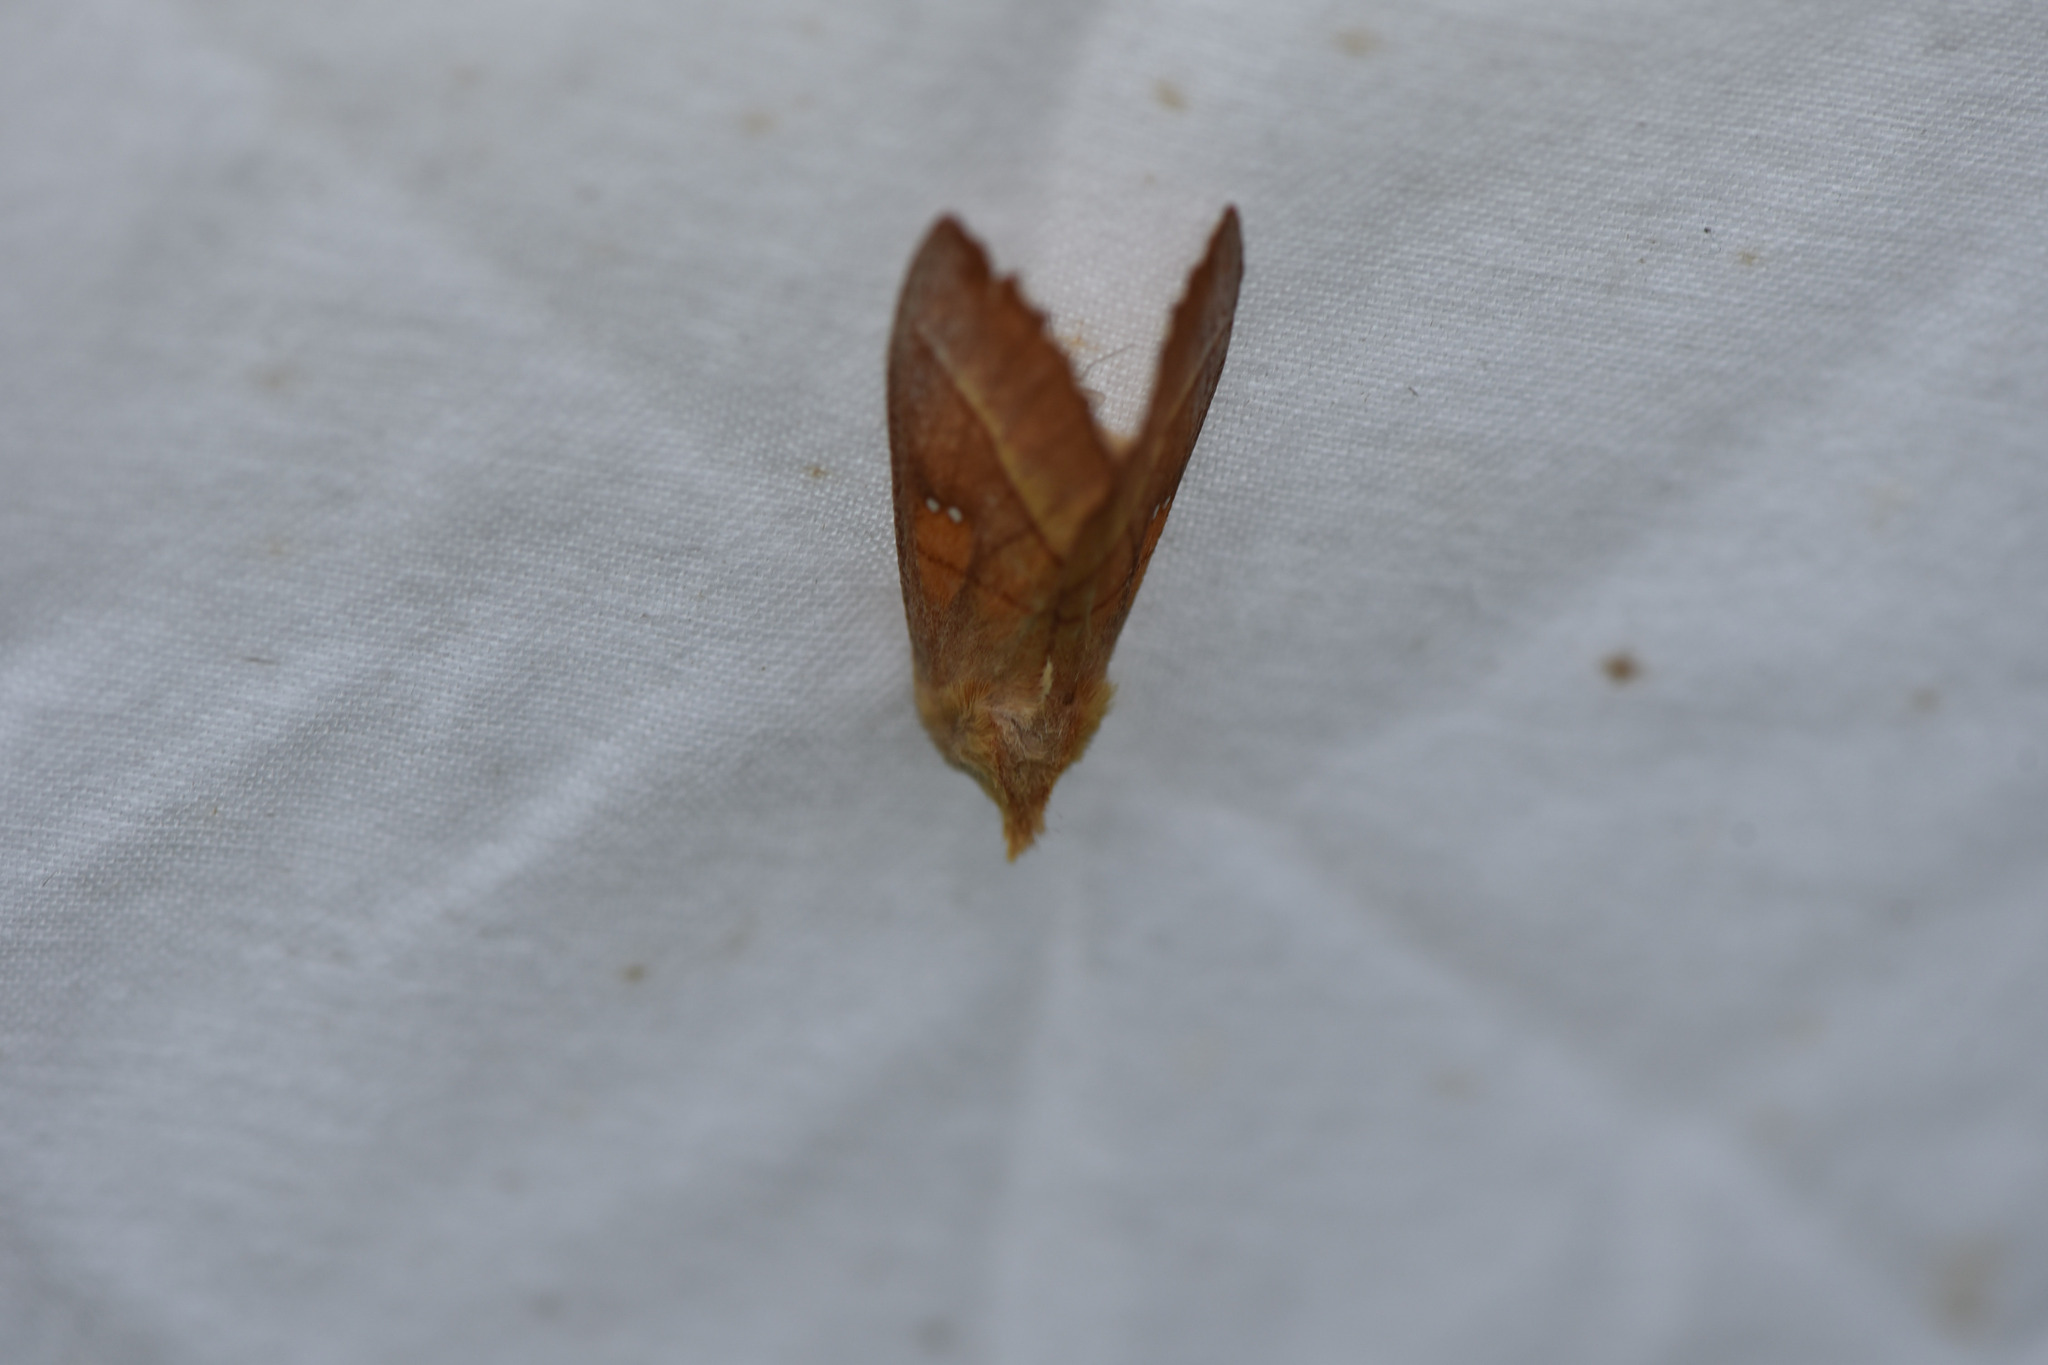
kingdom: Animalia
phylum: Arthropoda
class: Insecta
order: Lepidoptera
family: Notodontidae
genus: Nadata
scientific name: Nadata gibbosa
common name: White-dotted prominent
